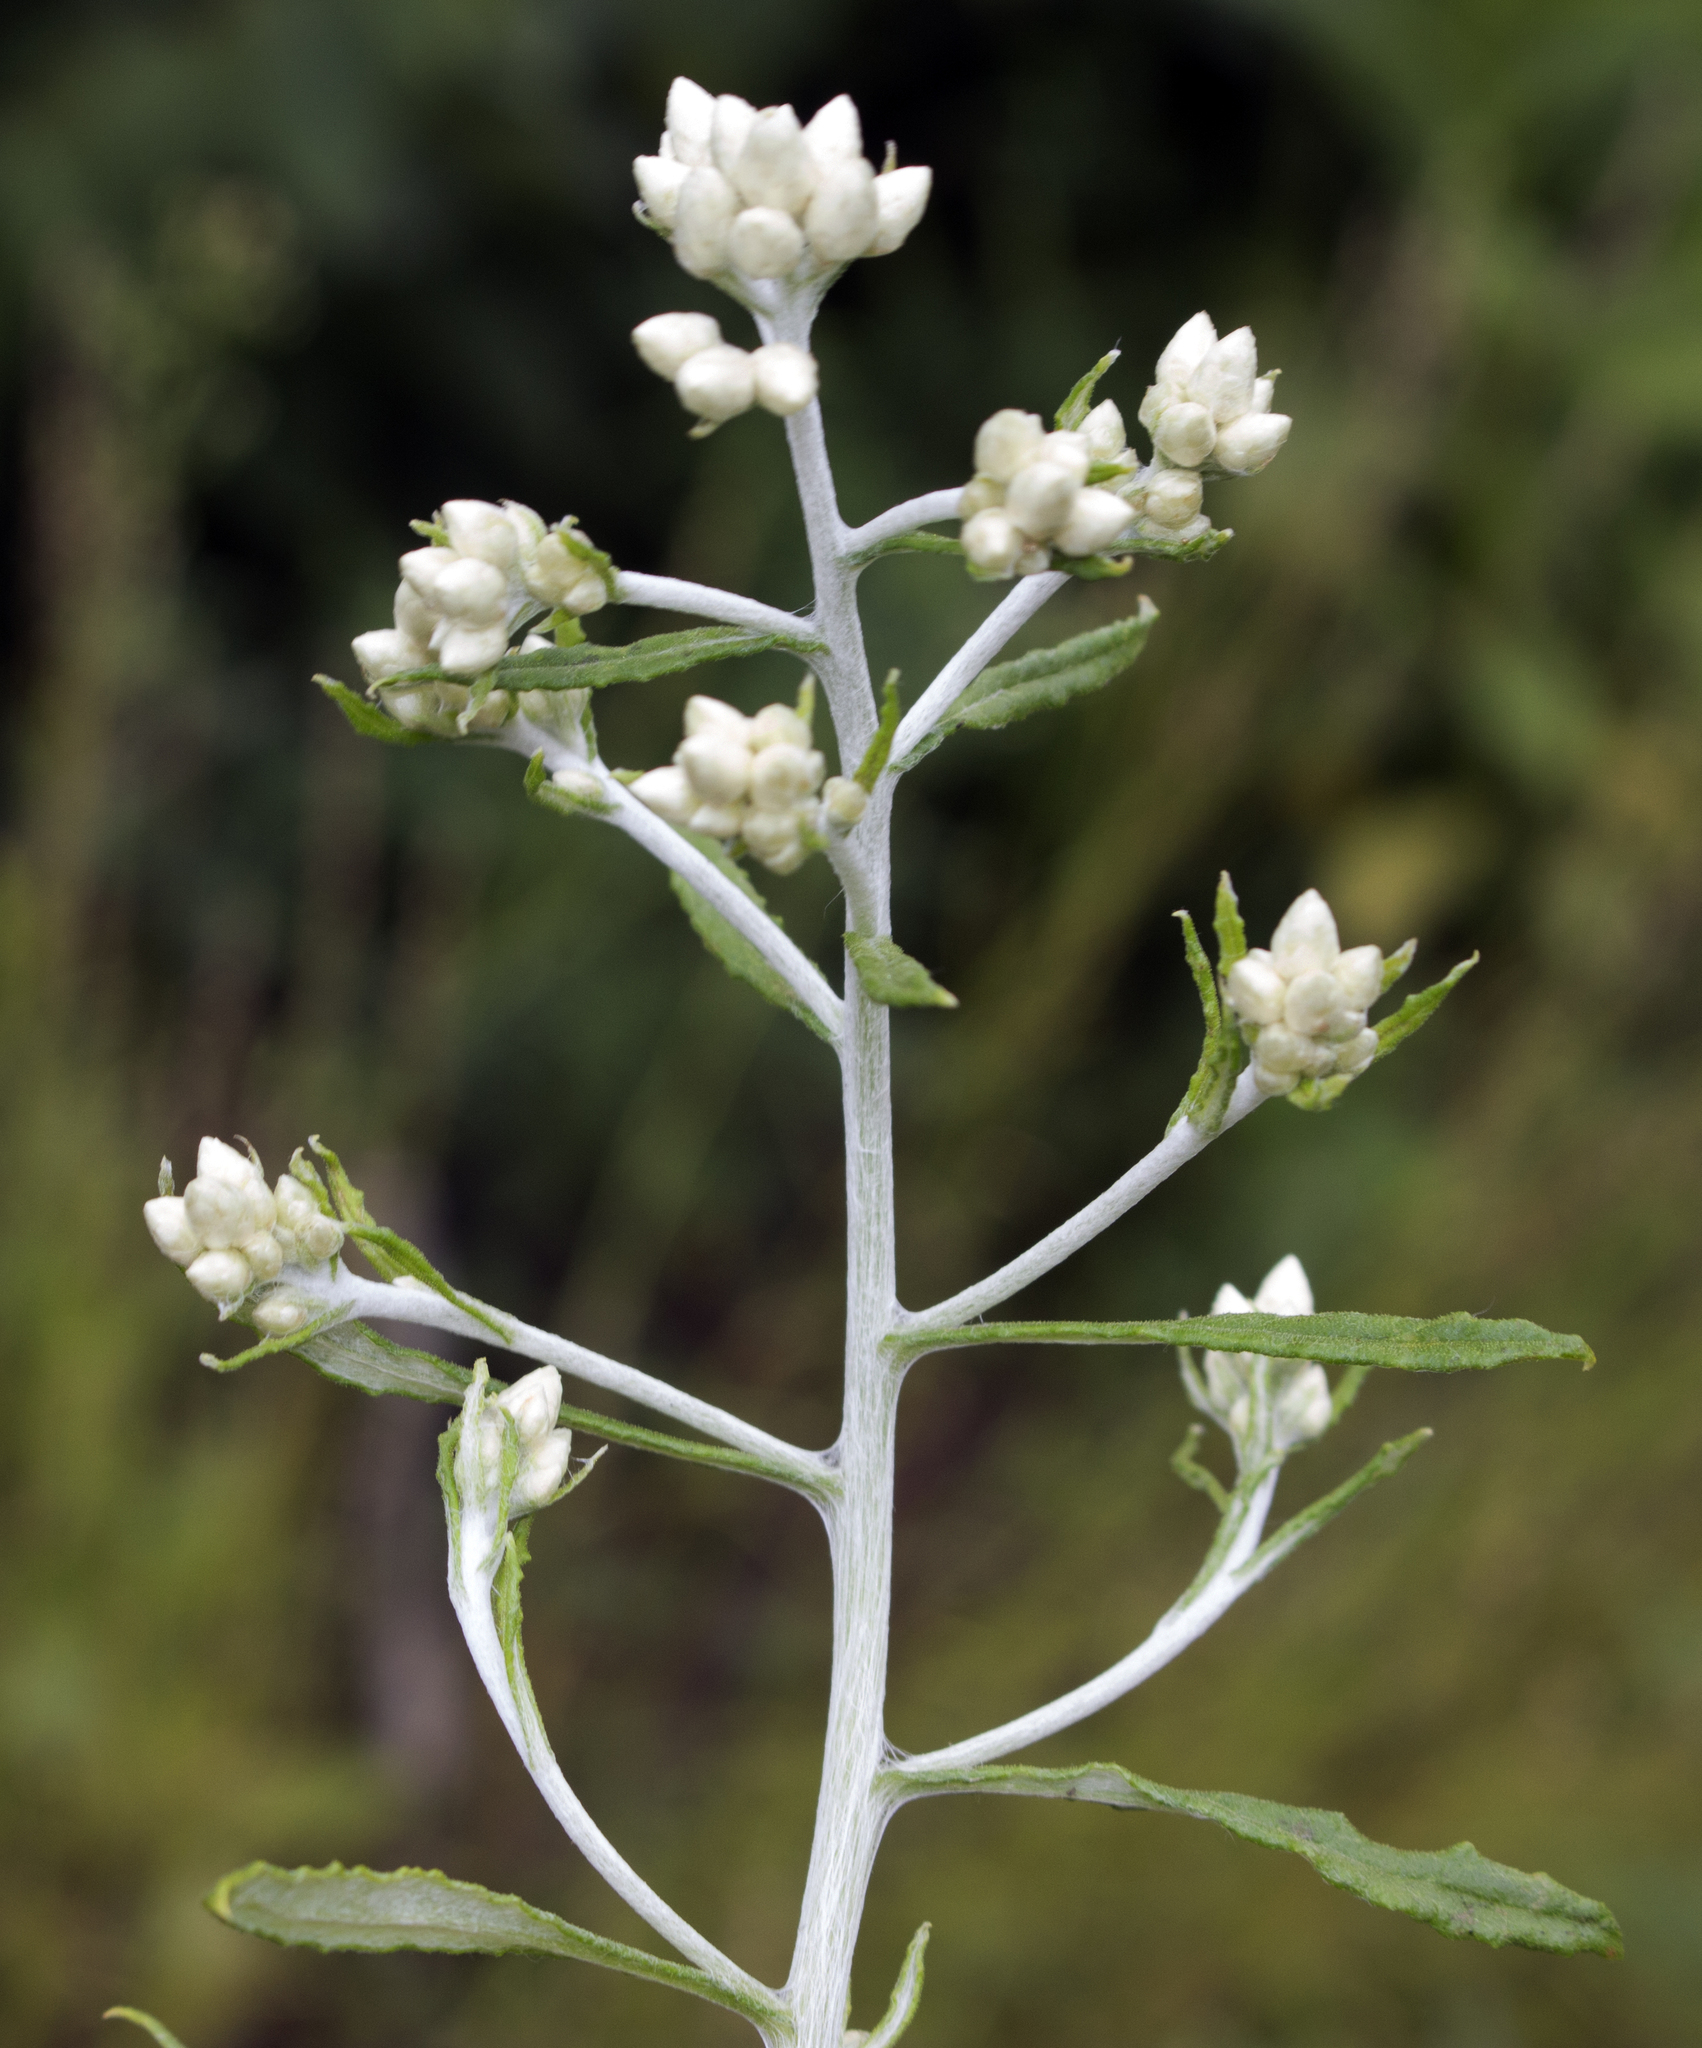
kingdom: Plantae
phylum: Tracheophyta
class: Magnoliopsida
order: Asterales
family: Asteraceae
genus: Pseudognaphalium
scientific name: Pseudognaphalium obtusifolium
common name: Eastern rabbit-tobacco
